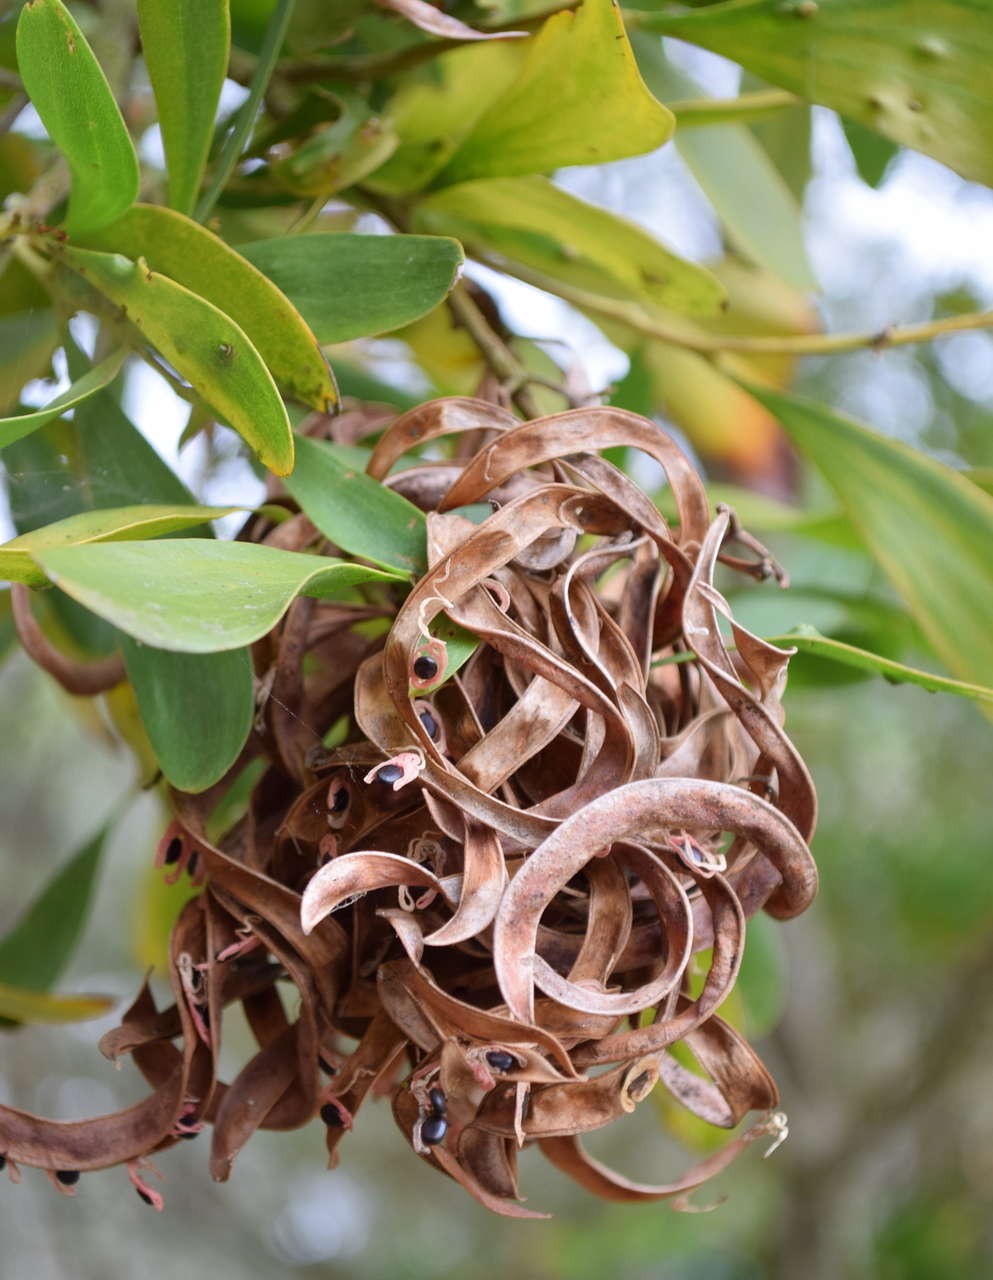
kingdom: Plantae
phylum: Tracheophyta
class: Magnoliopsida
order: Fabales
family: Fabaceae
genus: Acacia
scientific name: Acacia melanoxylon
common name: Blackwood
